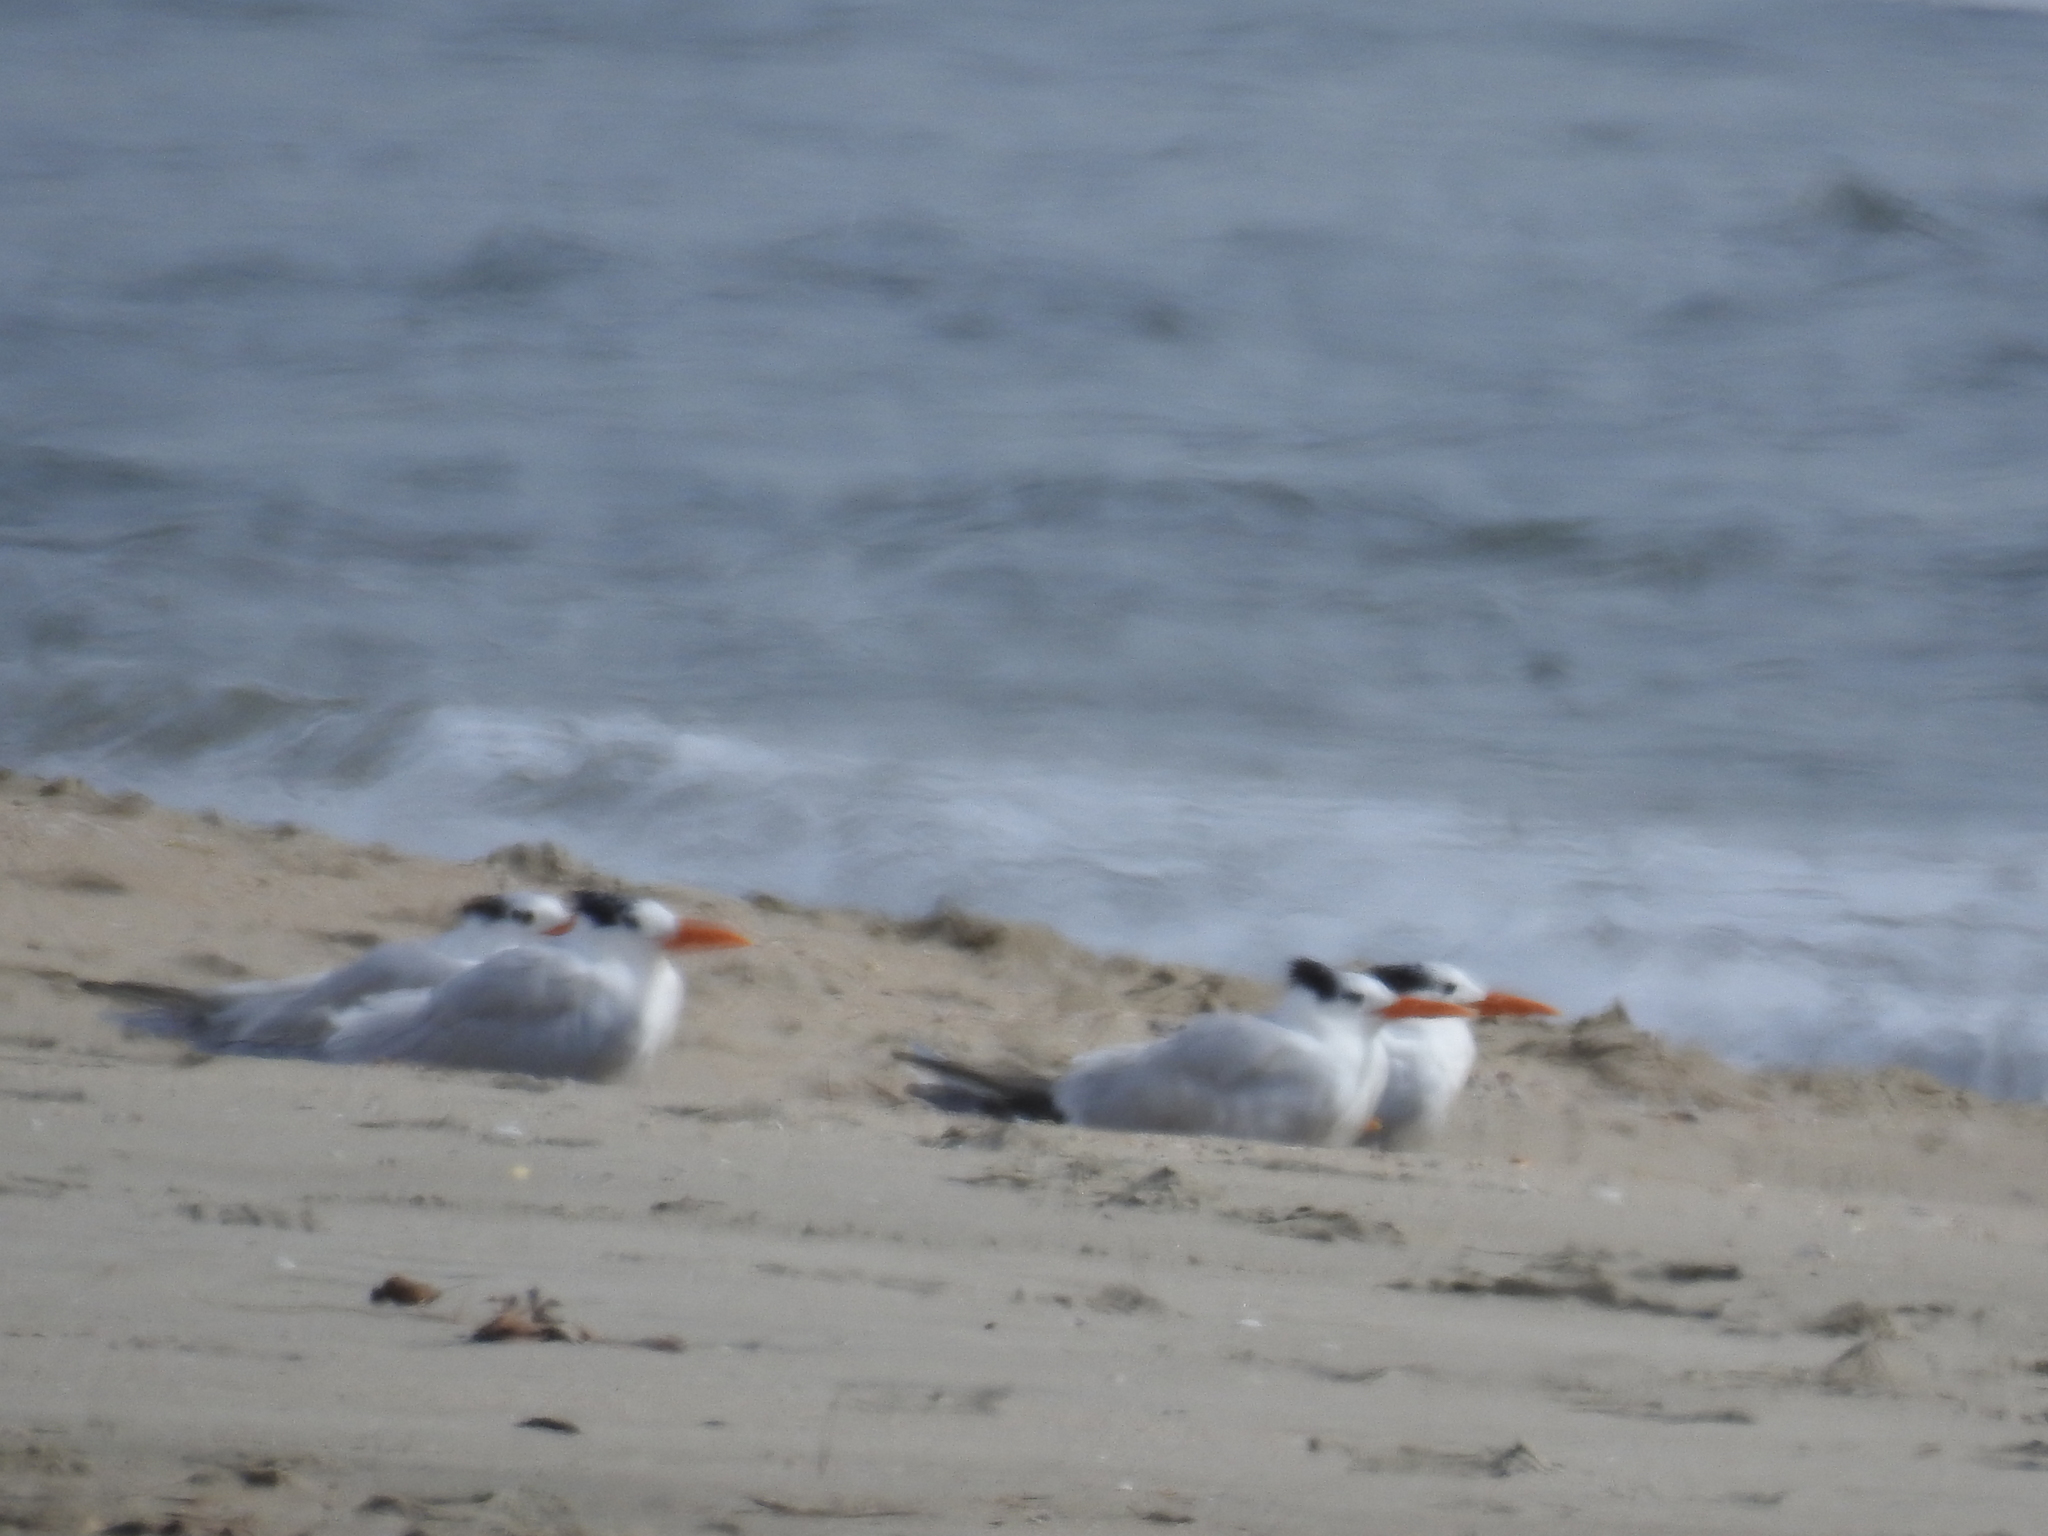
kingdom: Animalia
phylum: Chordata
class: Aves
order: Charadriiformes
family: Laridae
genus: Thalasseus
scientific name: Thalasseus maximus
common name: Royal tern
